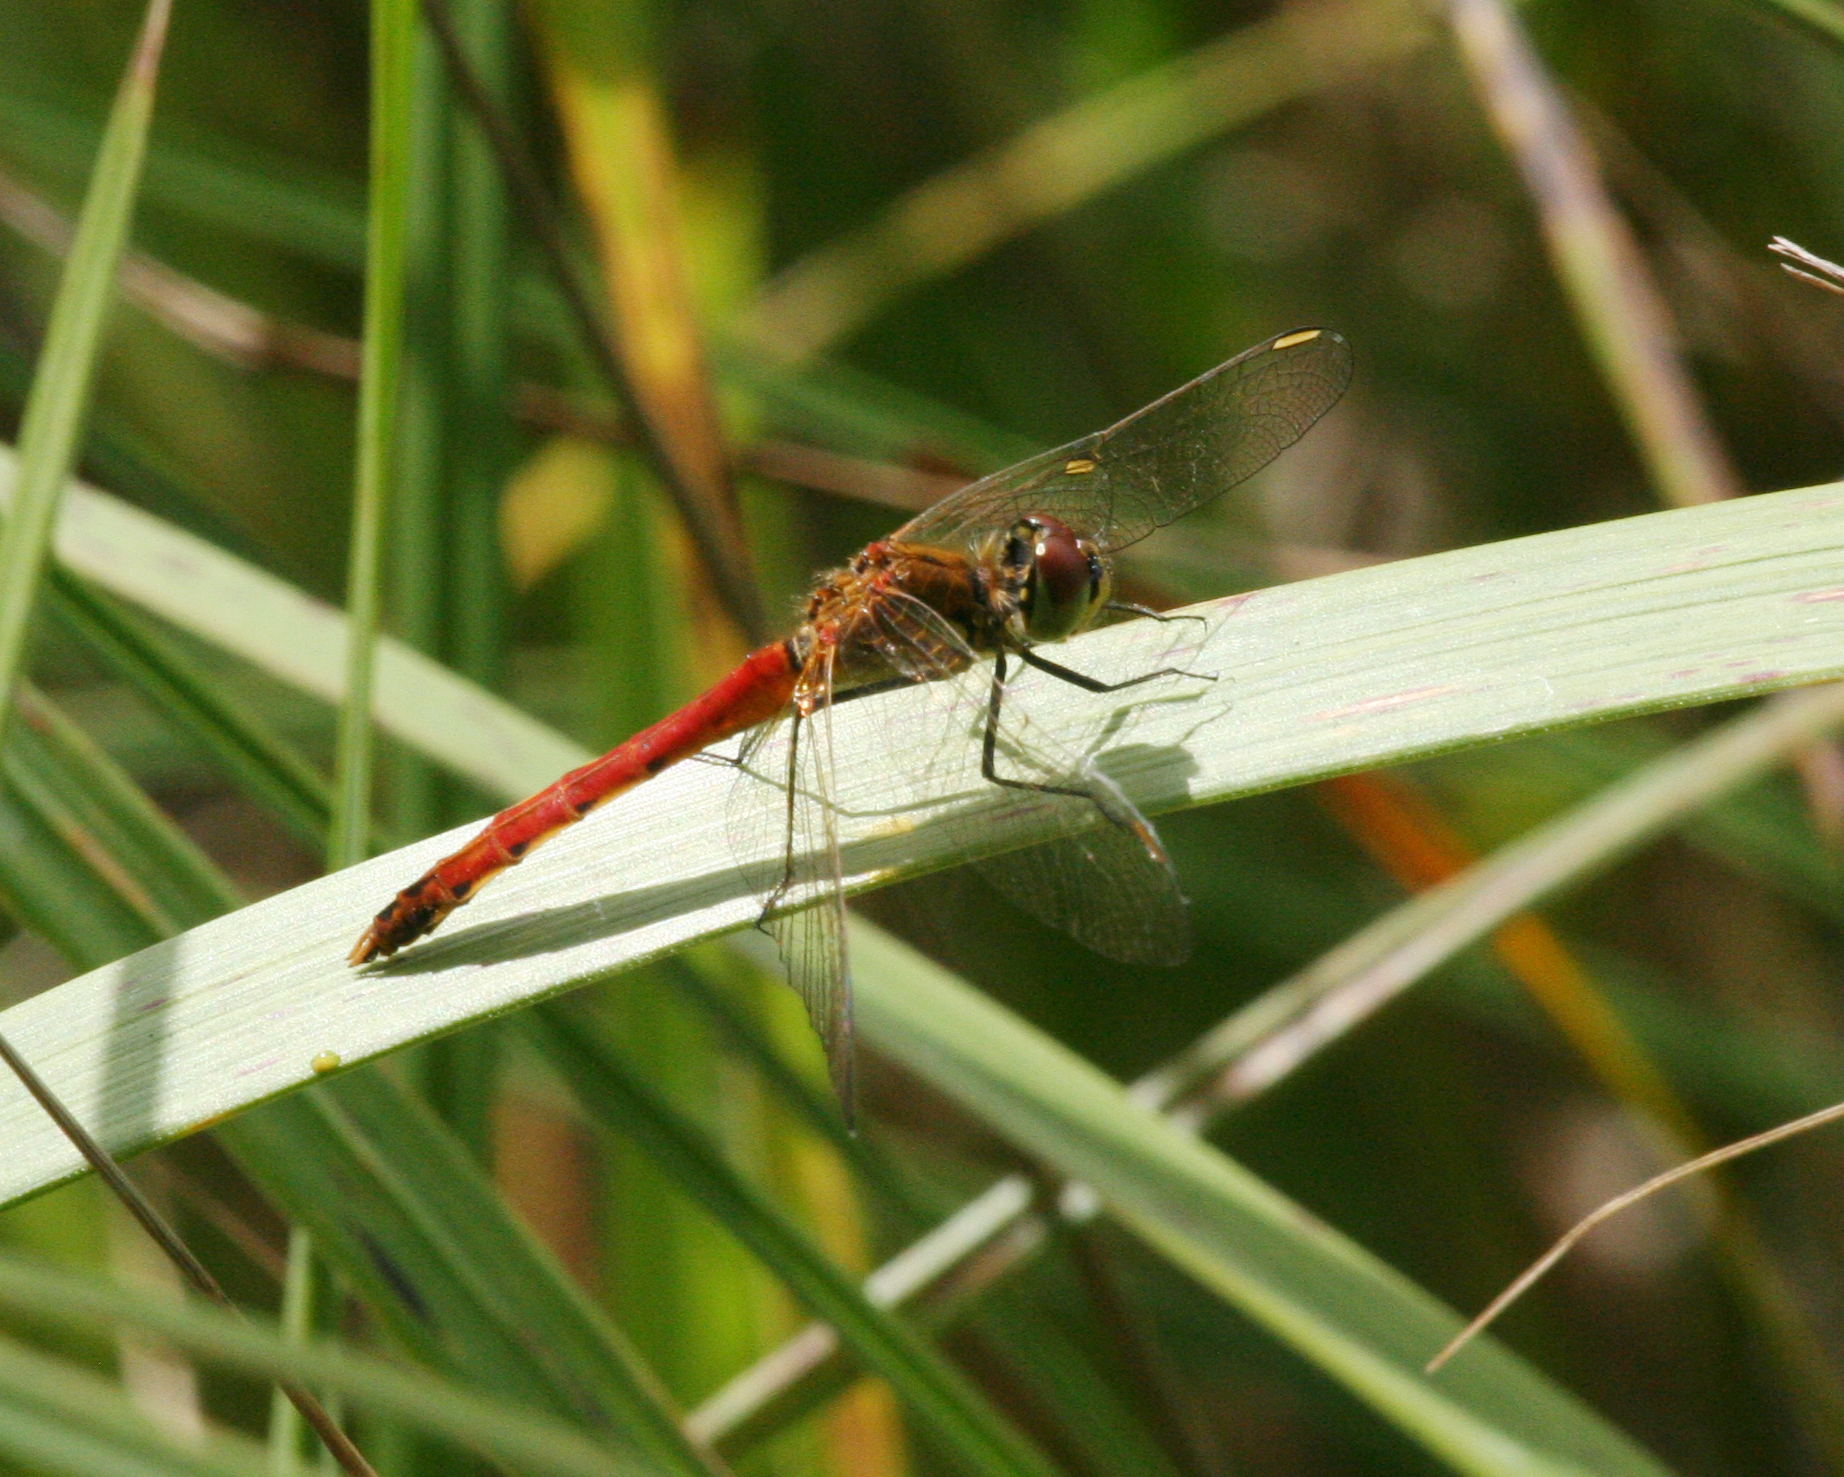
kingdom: Animalia
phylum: Arthropoda
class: Insecta
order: Odonata
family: Libellulidae
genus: Sympetrum
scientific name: Sympetrum depressiusculum
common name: Spotted darter
